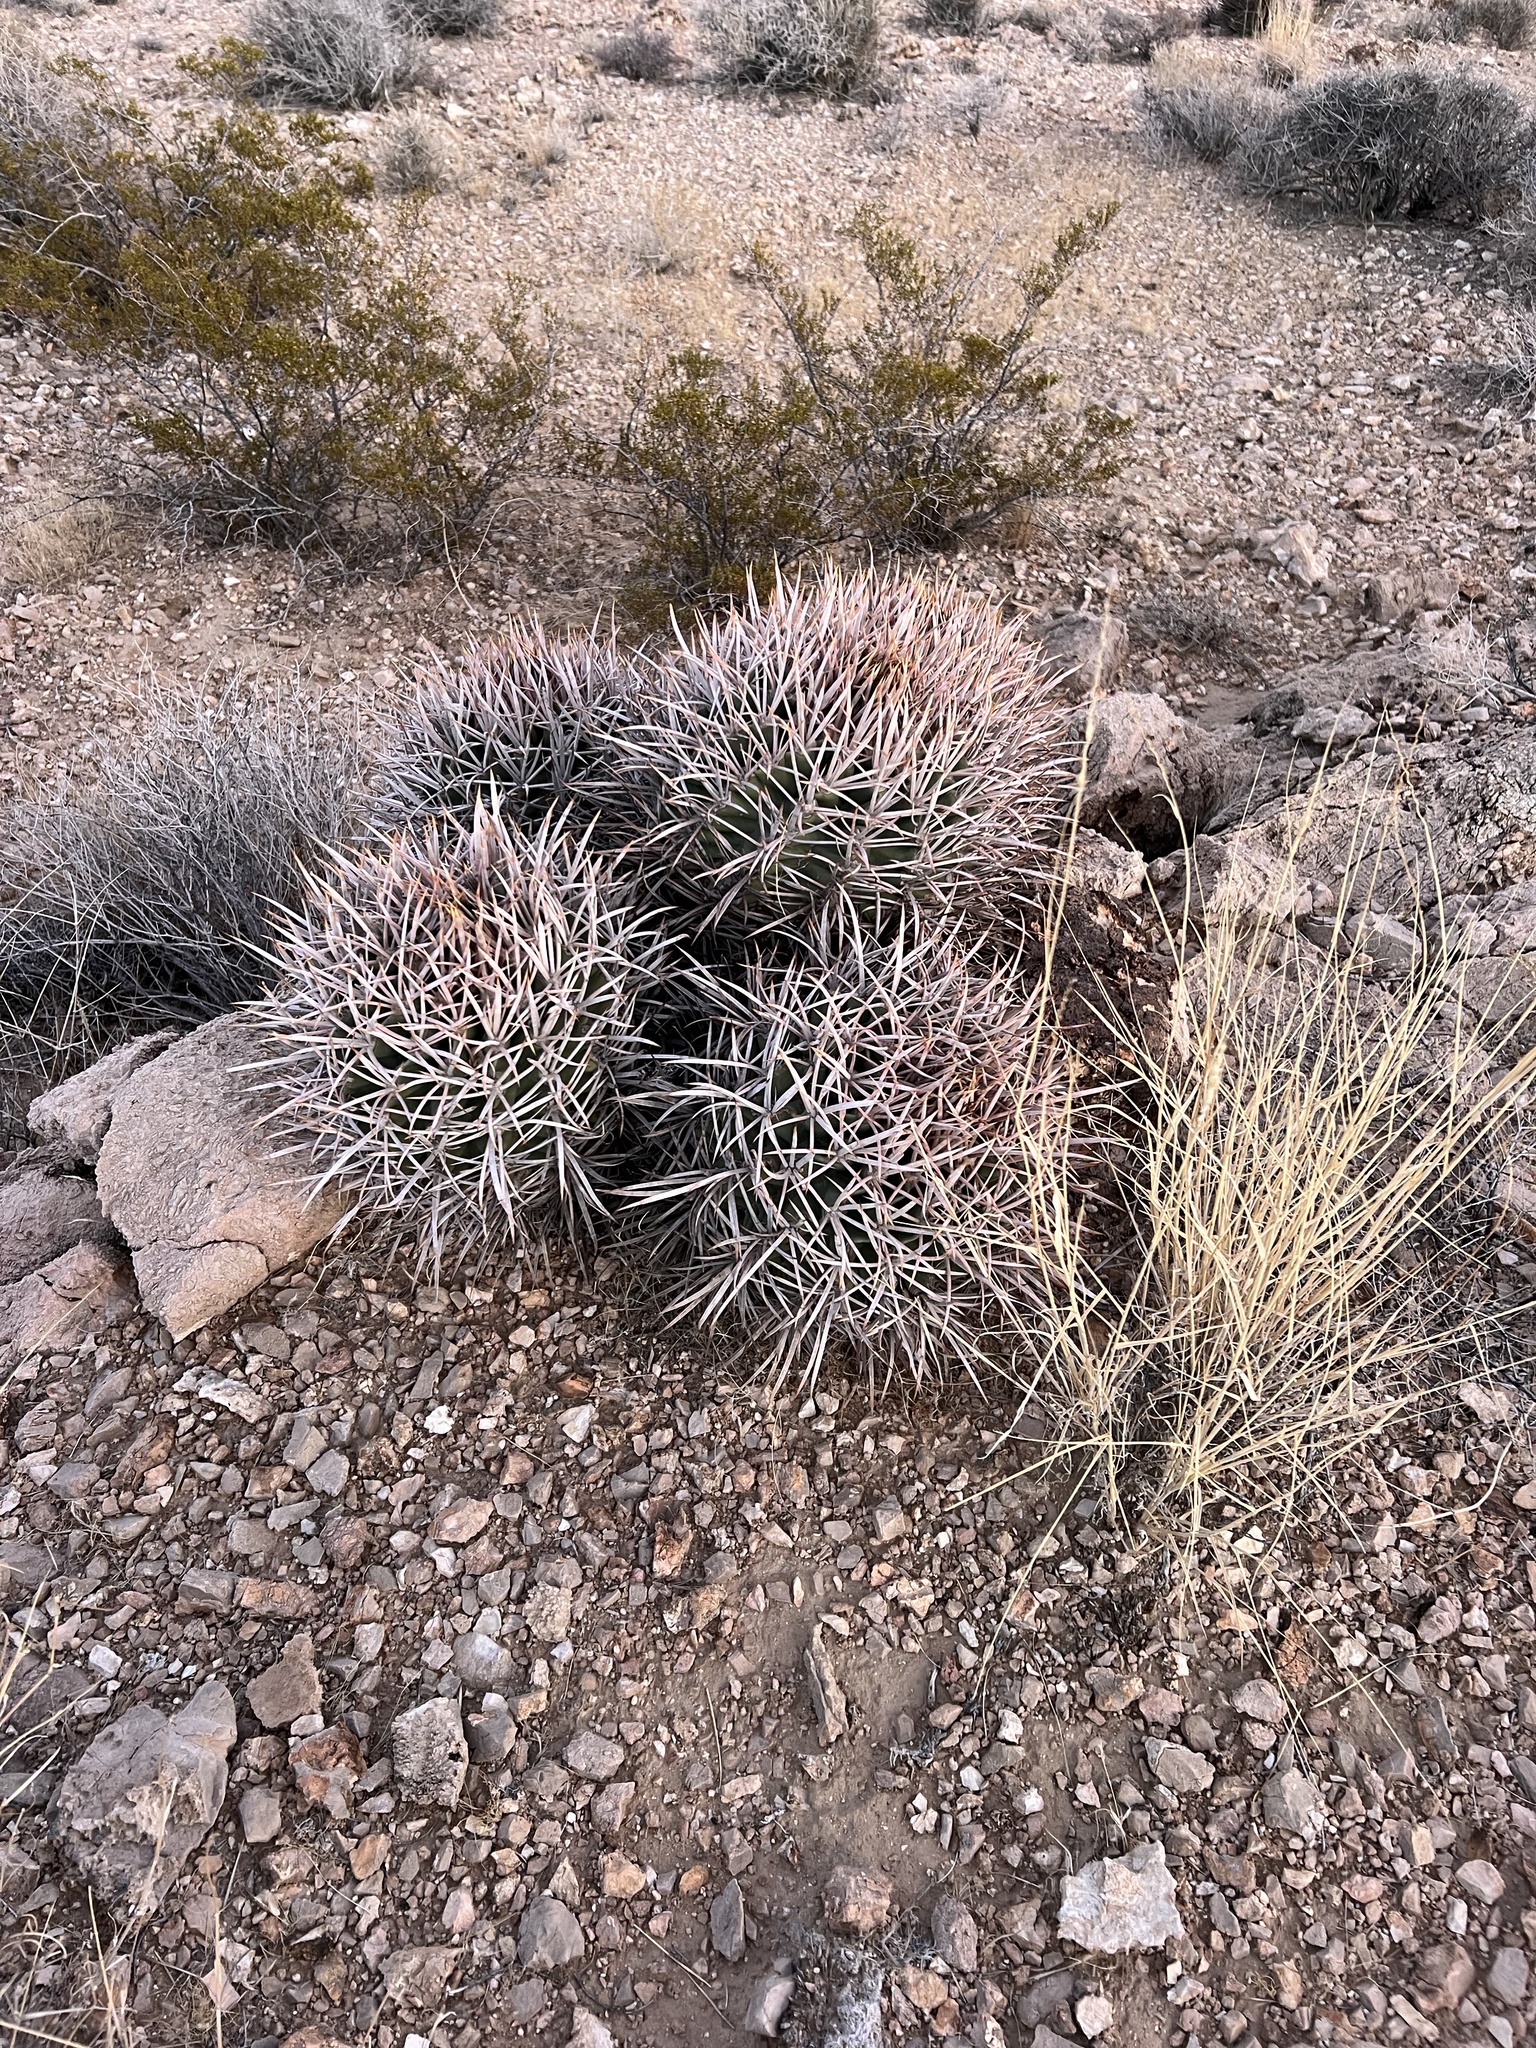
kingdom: Plantae
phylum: Tracheophyta
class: Magnoliopsida
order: Caryophyllales
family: Cactaceae
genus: Echinocactus
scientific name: Echinocactus polycephalus
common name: Cottontop cactus
